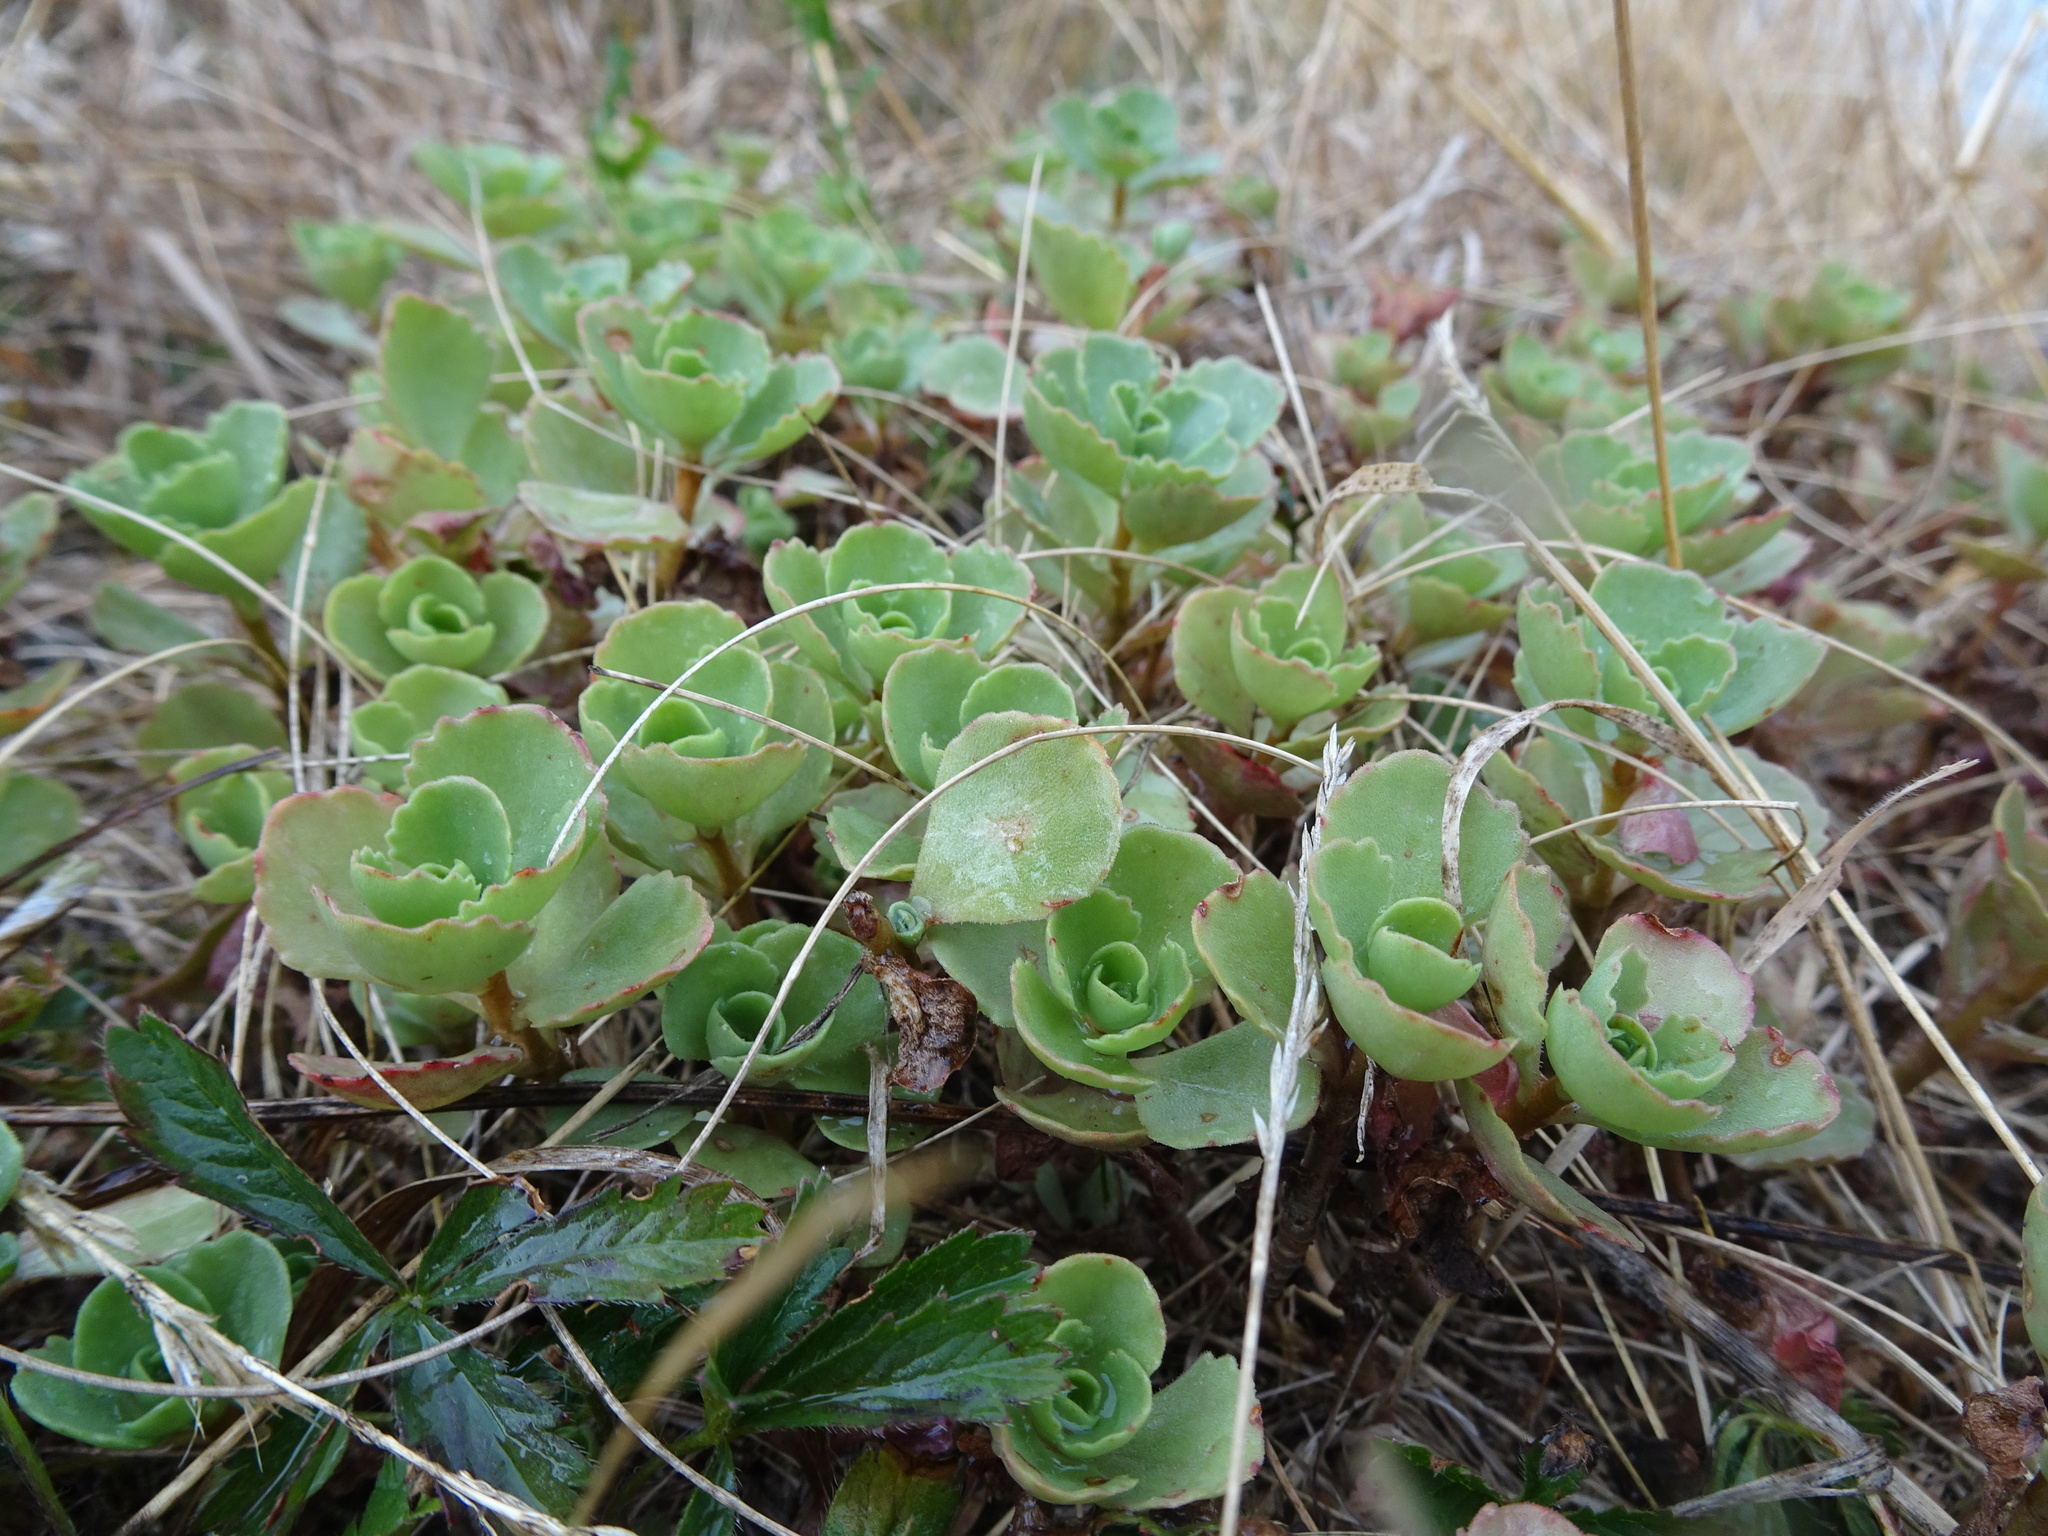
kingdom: Plantae
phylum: Tracheophyta
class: Magnoliopsida
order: Saxifragales
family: Crassulaceae
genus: Phedimus
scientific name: Phedimus spurius
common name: Caucasian stonecrop
